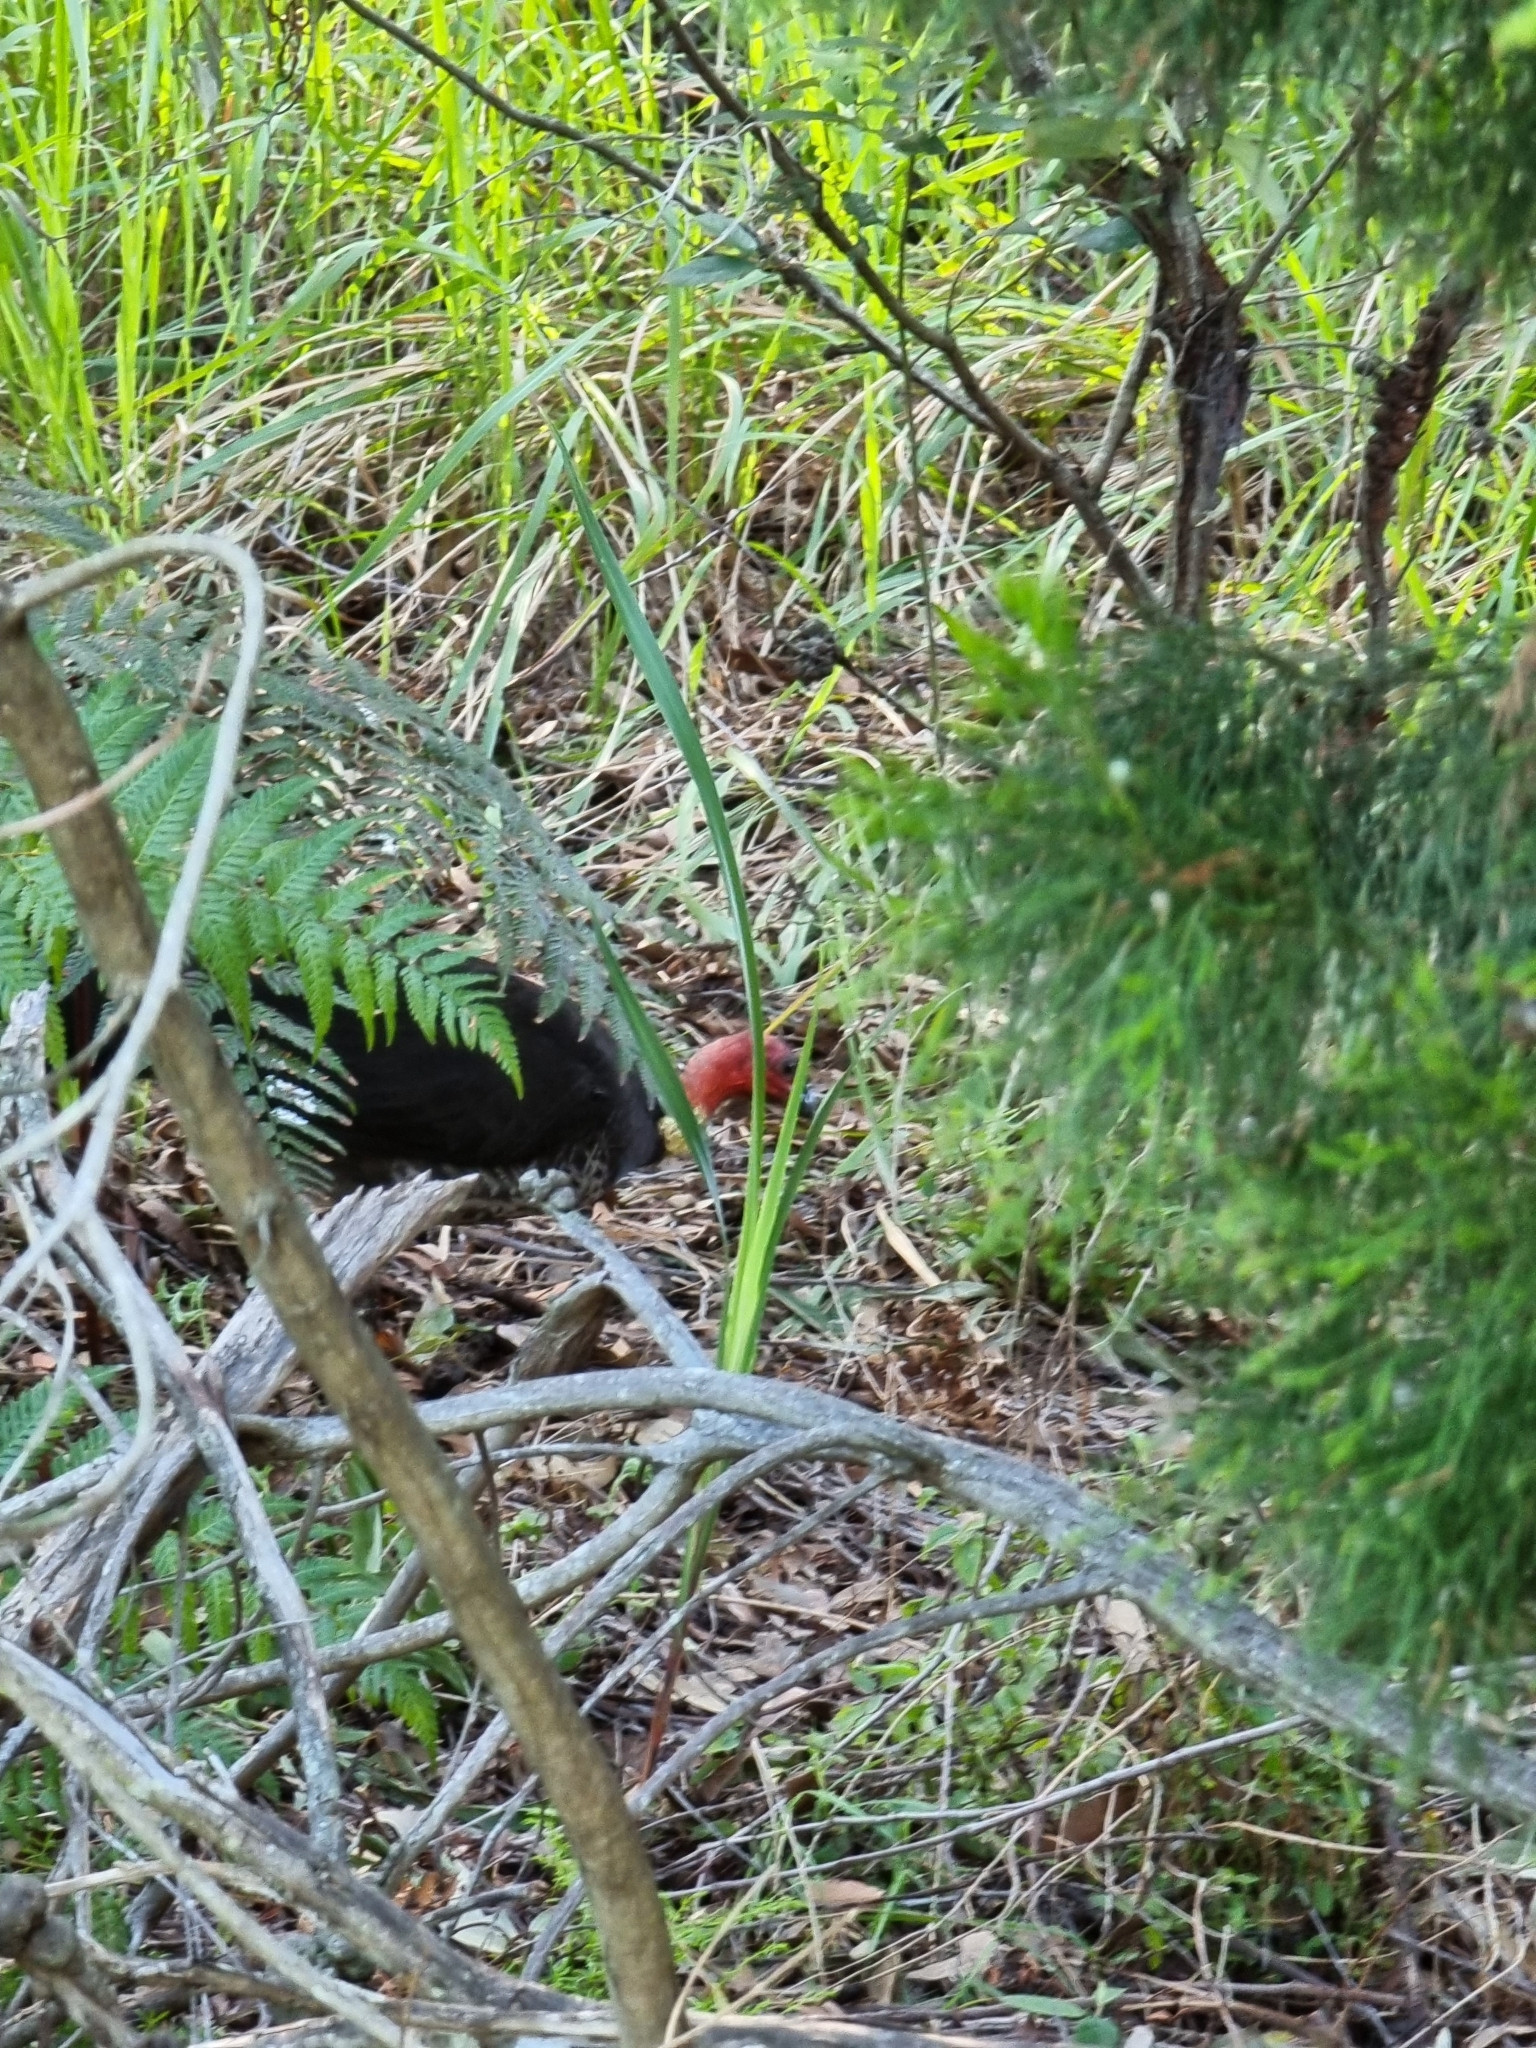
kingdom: Animalia
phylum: Chordata
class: Aves
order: Galliformes
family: Megapodiidae
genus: Alectura
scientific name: Alectura lathami
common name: Australian brushturkey
